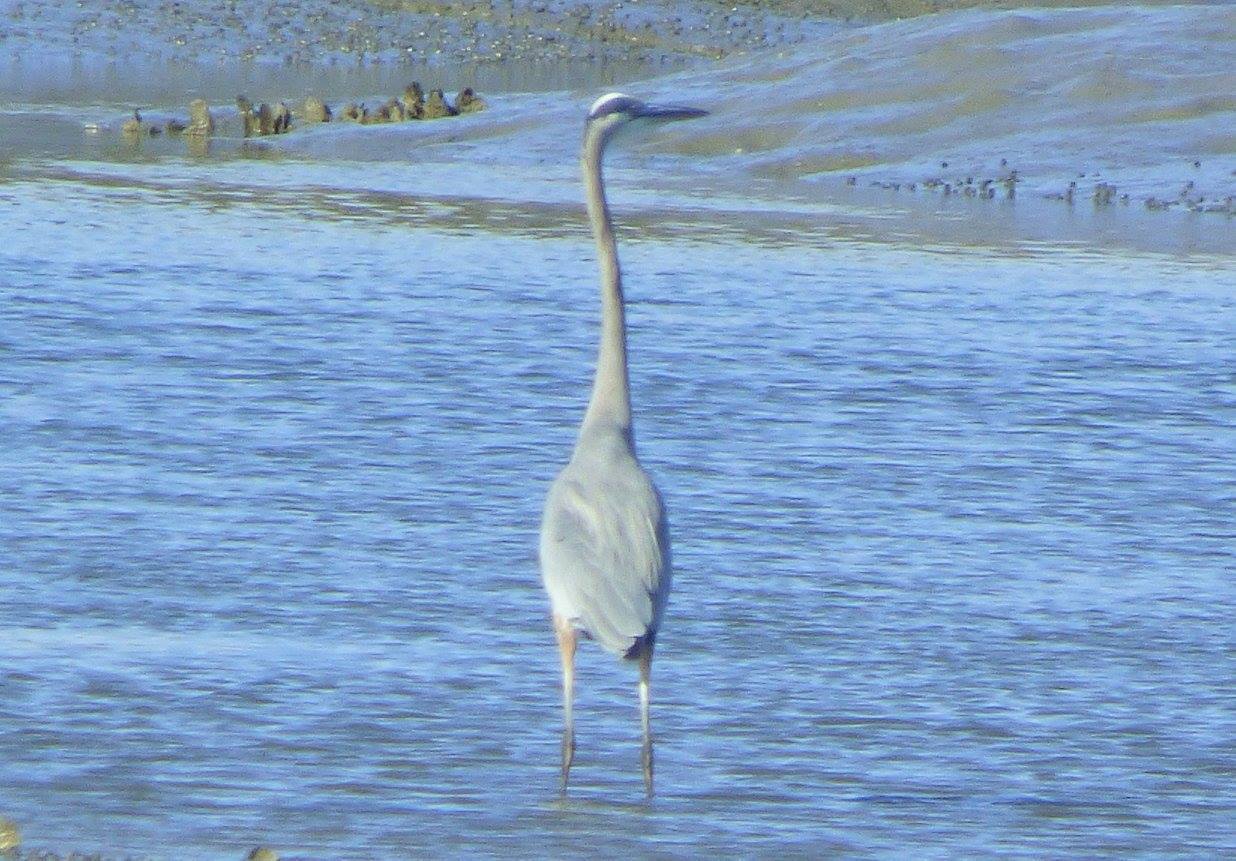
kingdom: Animalia
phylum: Chordata
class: Aves
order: Pelecaniformes
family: Ardeidae
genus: Ardea
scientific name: Ardea herodias
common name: Great blue heron
